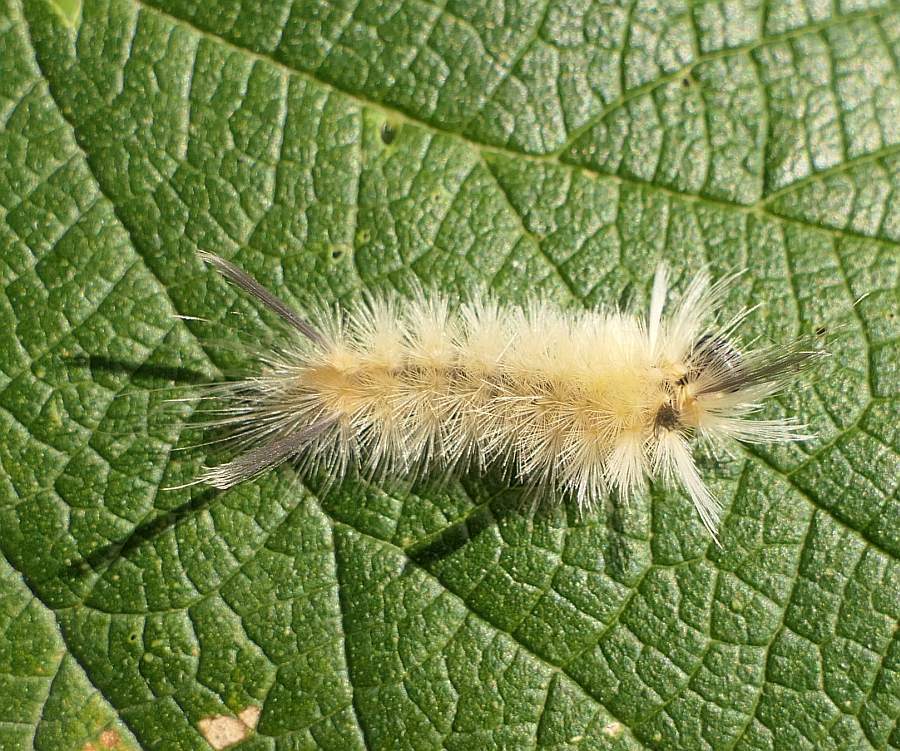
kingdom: Animalia
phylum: Arthropoda
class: Insecta
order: Lepidoptera
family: Erebidae
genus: Halysidota
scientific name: Halysidota tessellaris
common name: Banded tussock moth
